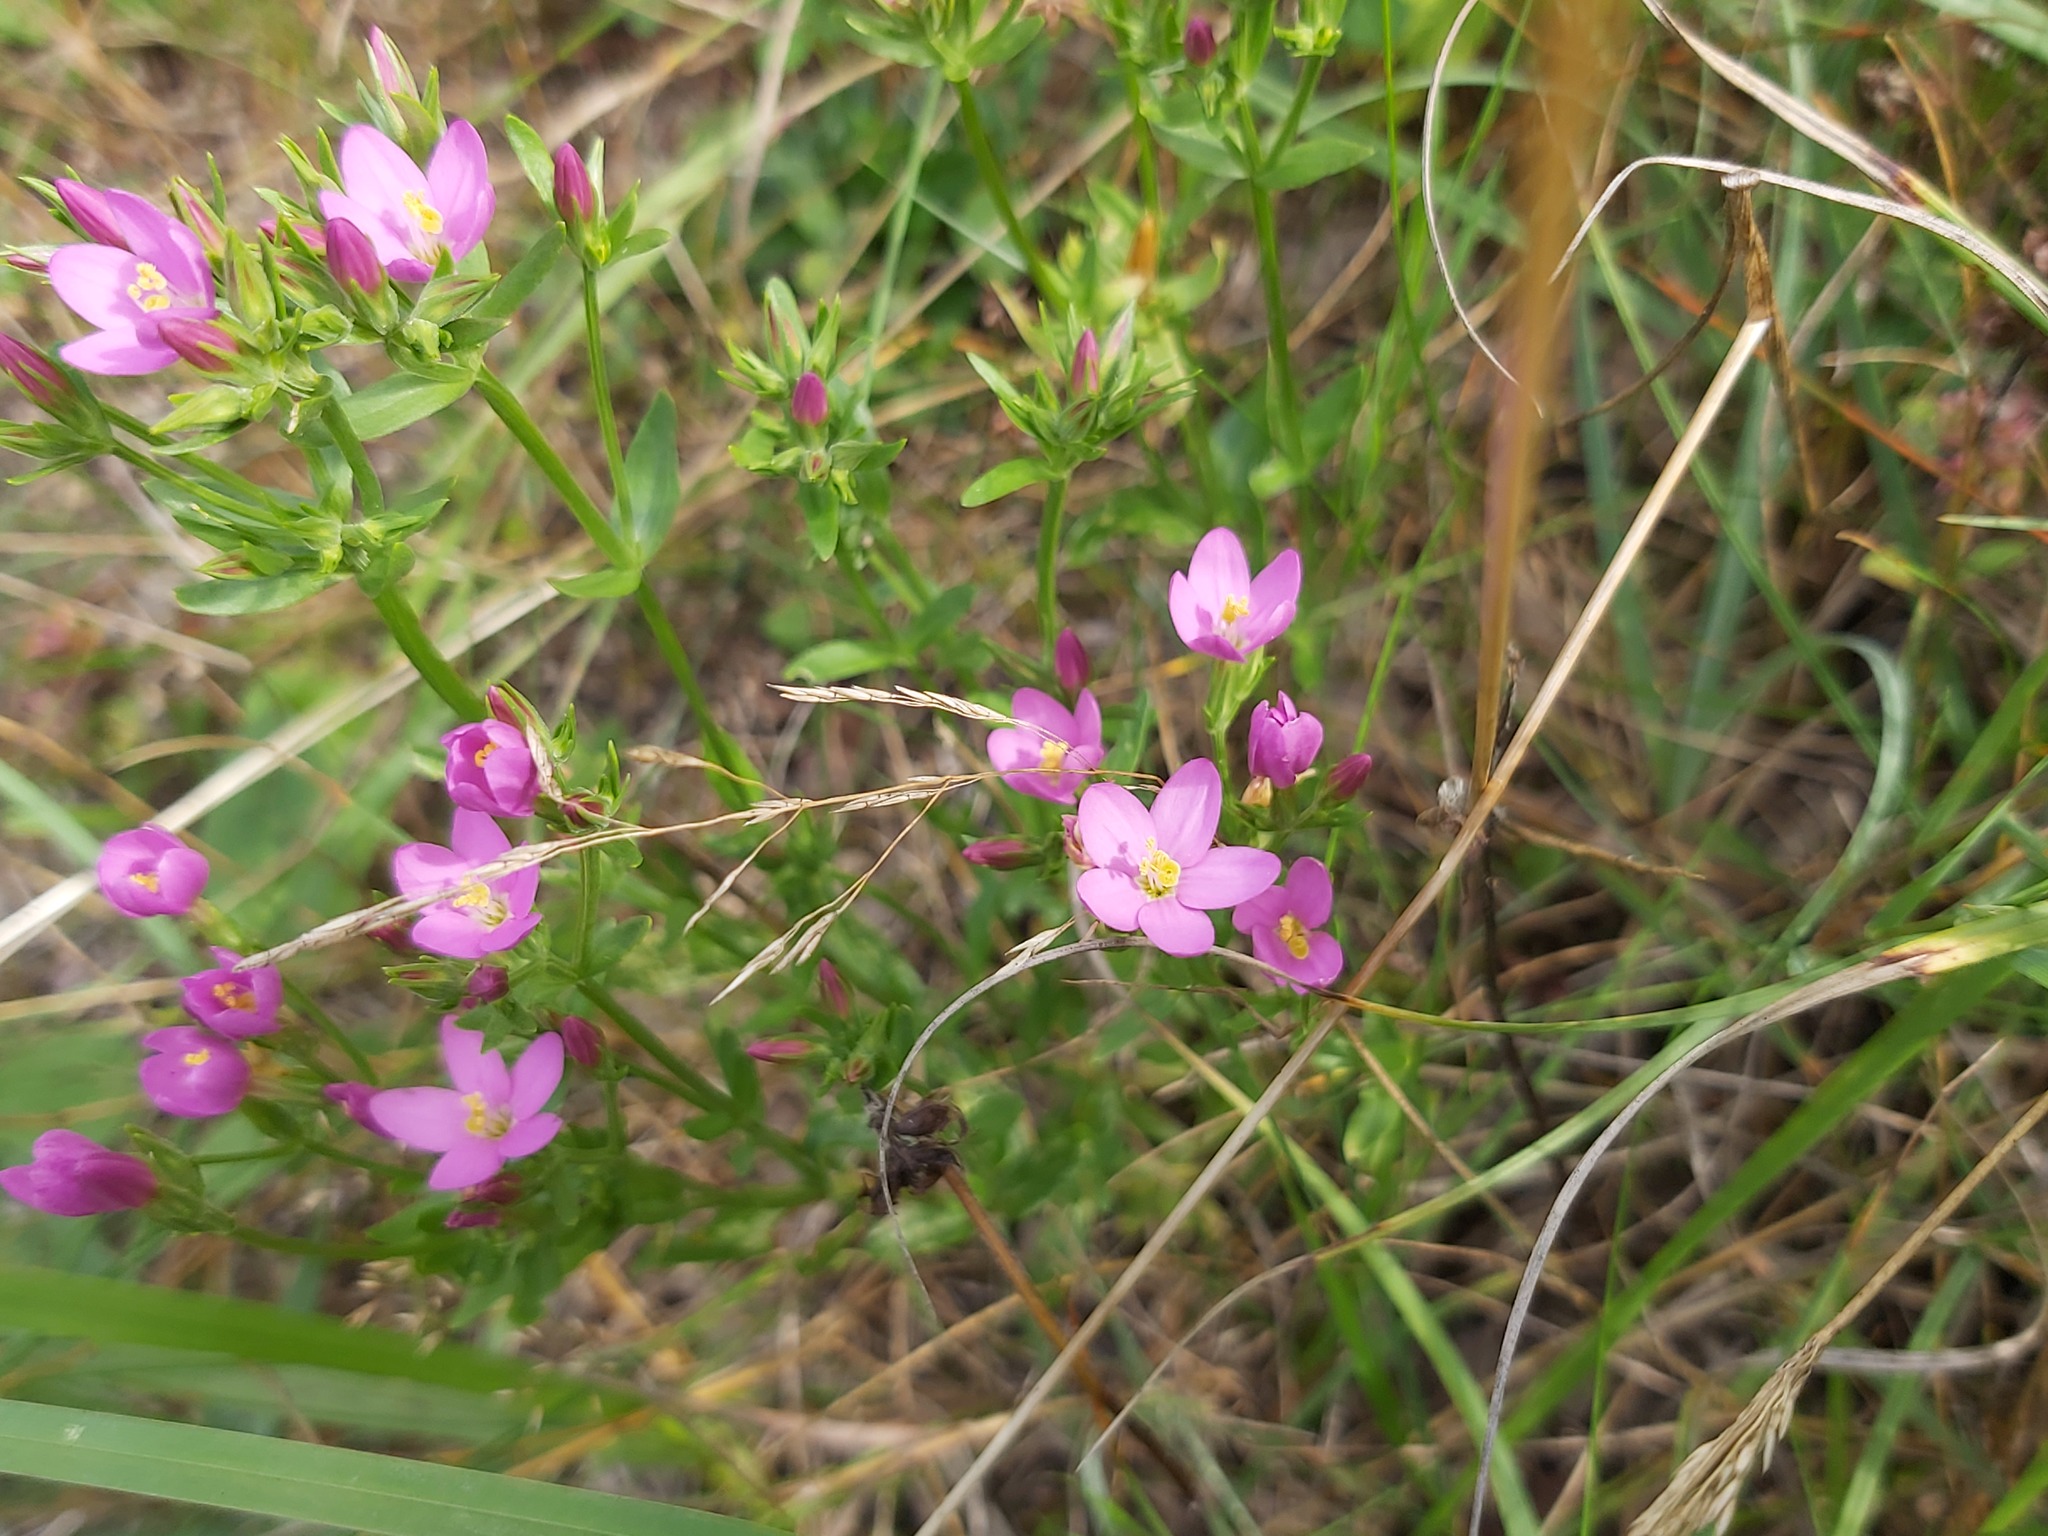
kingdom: Plantae
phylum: Tracheophyta
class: Magnoliopsida
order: Gentianales
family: Gentianaceae
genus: Centaurium
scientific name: Centaurium erythraea
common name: Common centaury
